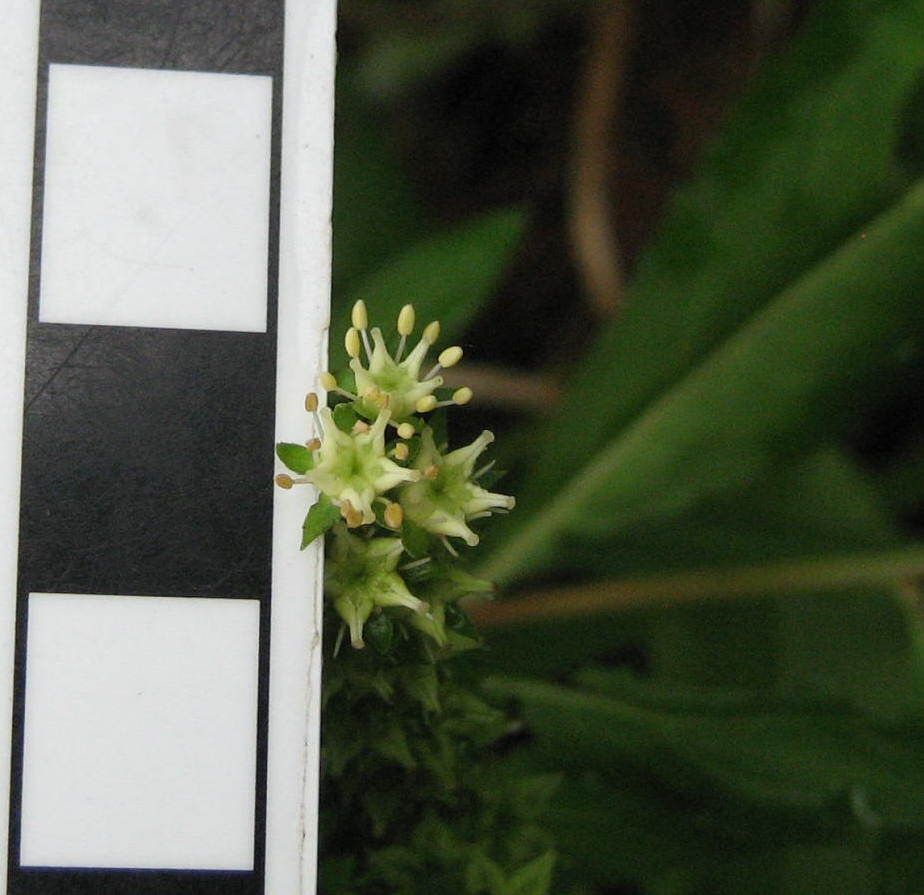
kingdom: Plantae
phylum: Tracheophyta
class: Magnoliopsida
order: Saxifragales
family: Penthoraceae
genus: Penthorum
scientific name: Penthorum sedoides
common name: Ditch stonecrop
